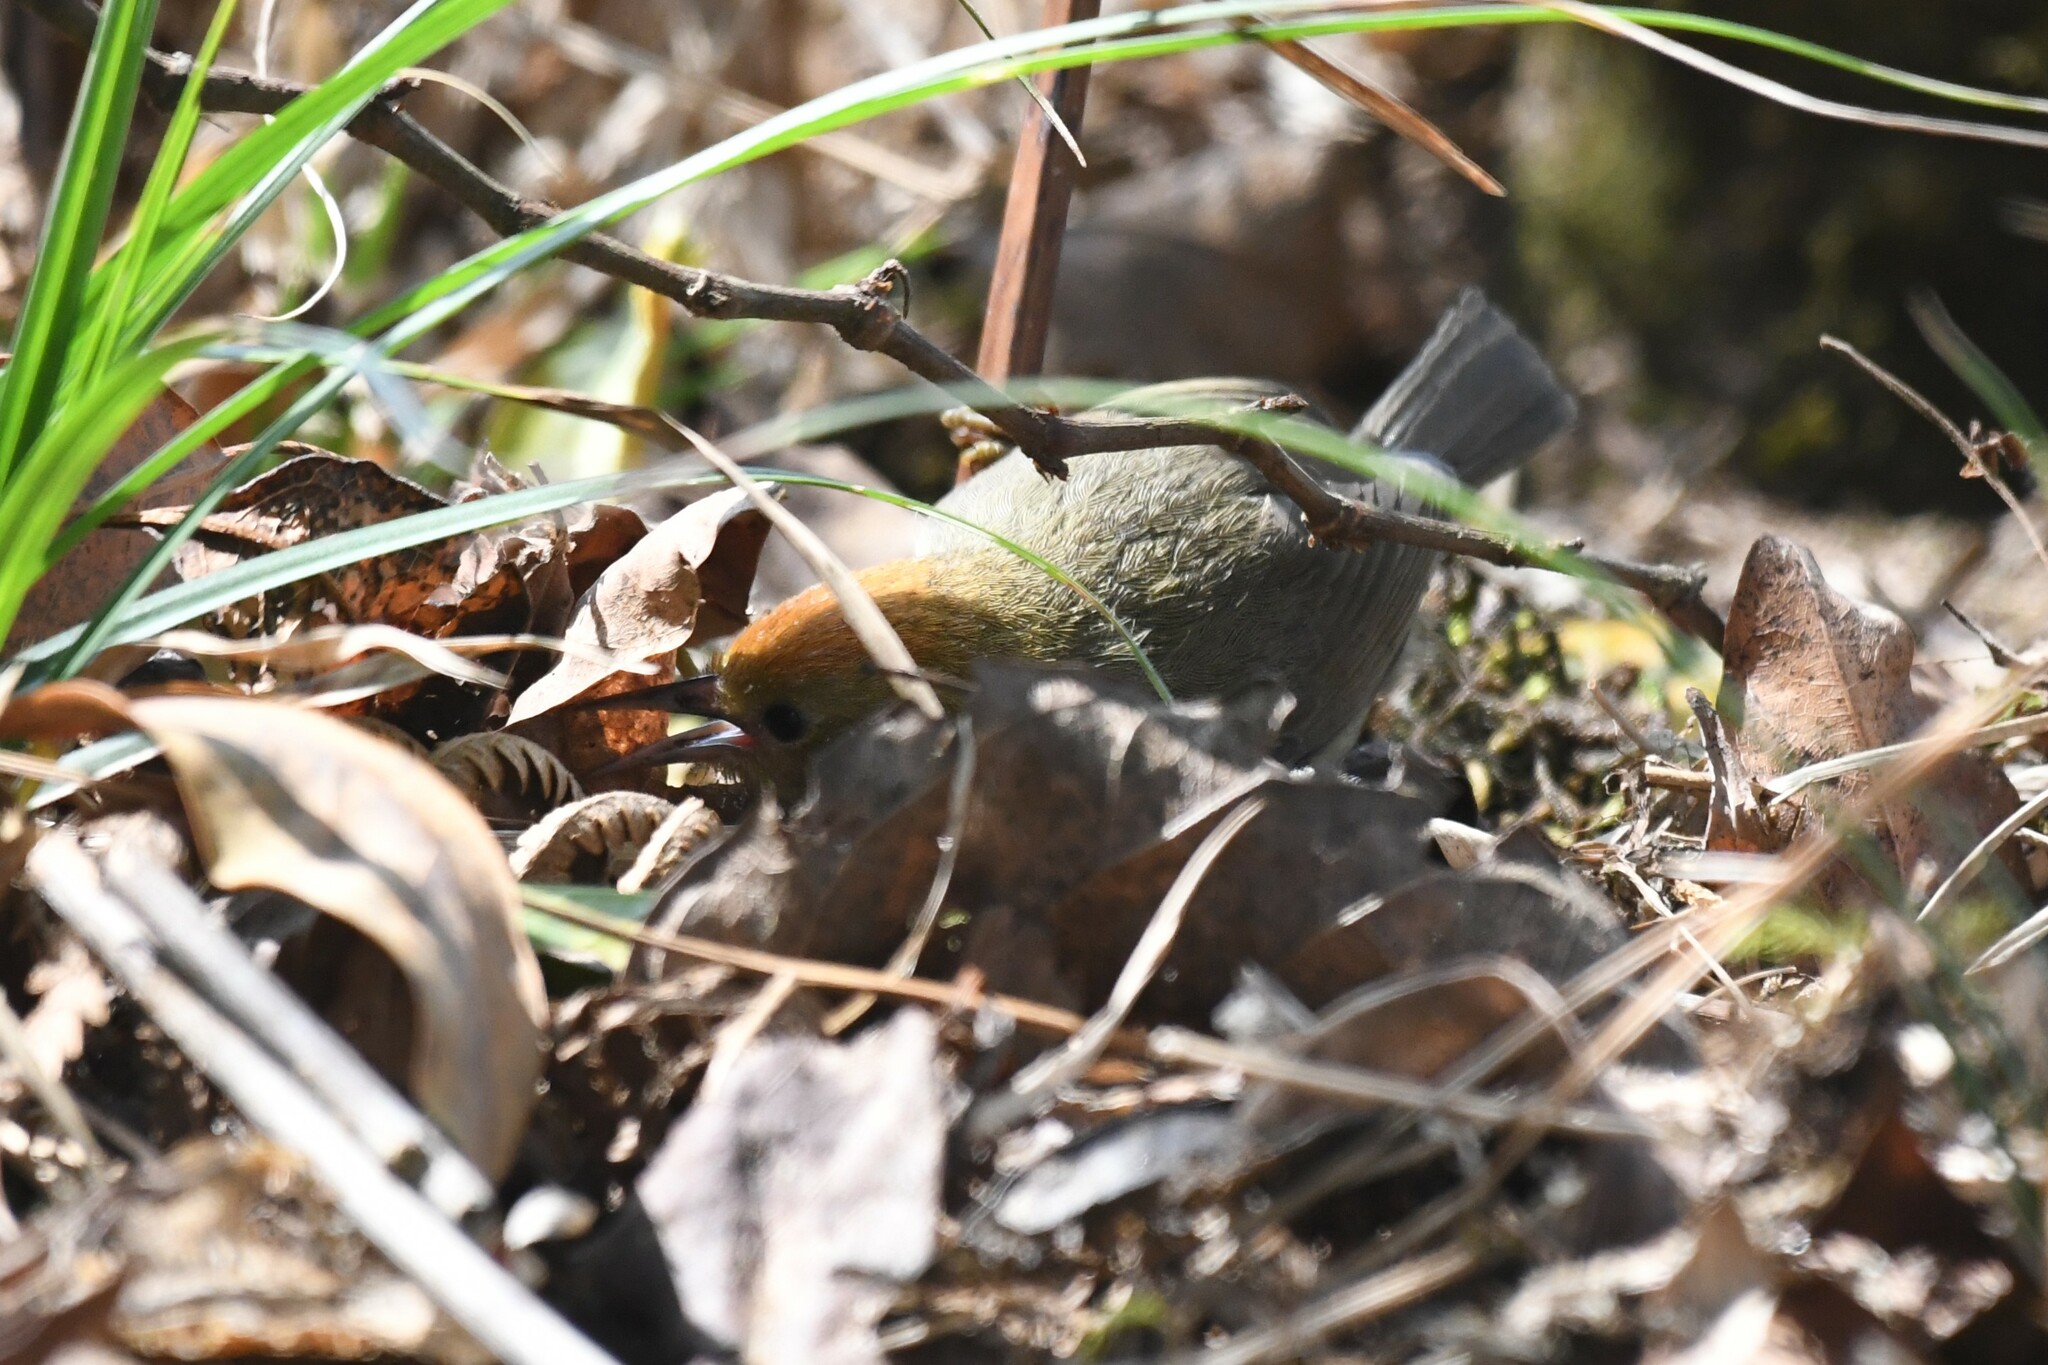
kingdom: Animalia
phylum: Chordata
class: Aves
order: Passeriformes
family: Timaliidae
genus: Stachyridopsis
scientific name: Stachyridopsis ruficeps
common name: Rufous-capped babbler
